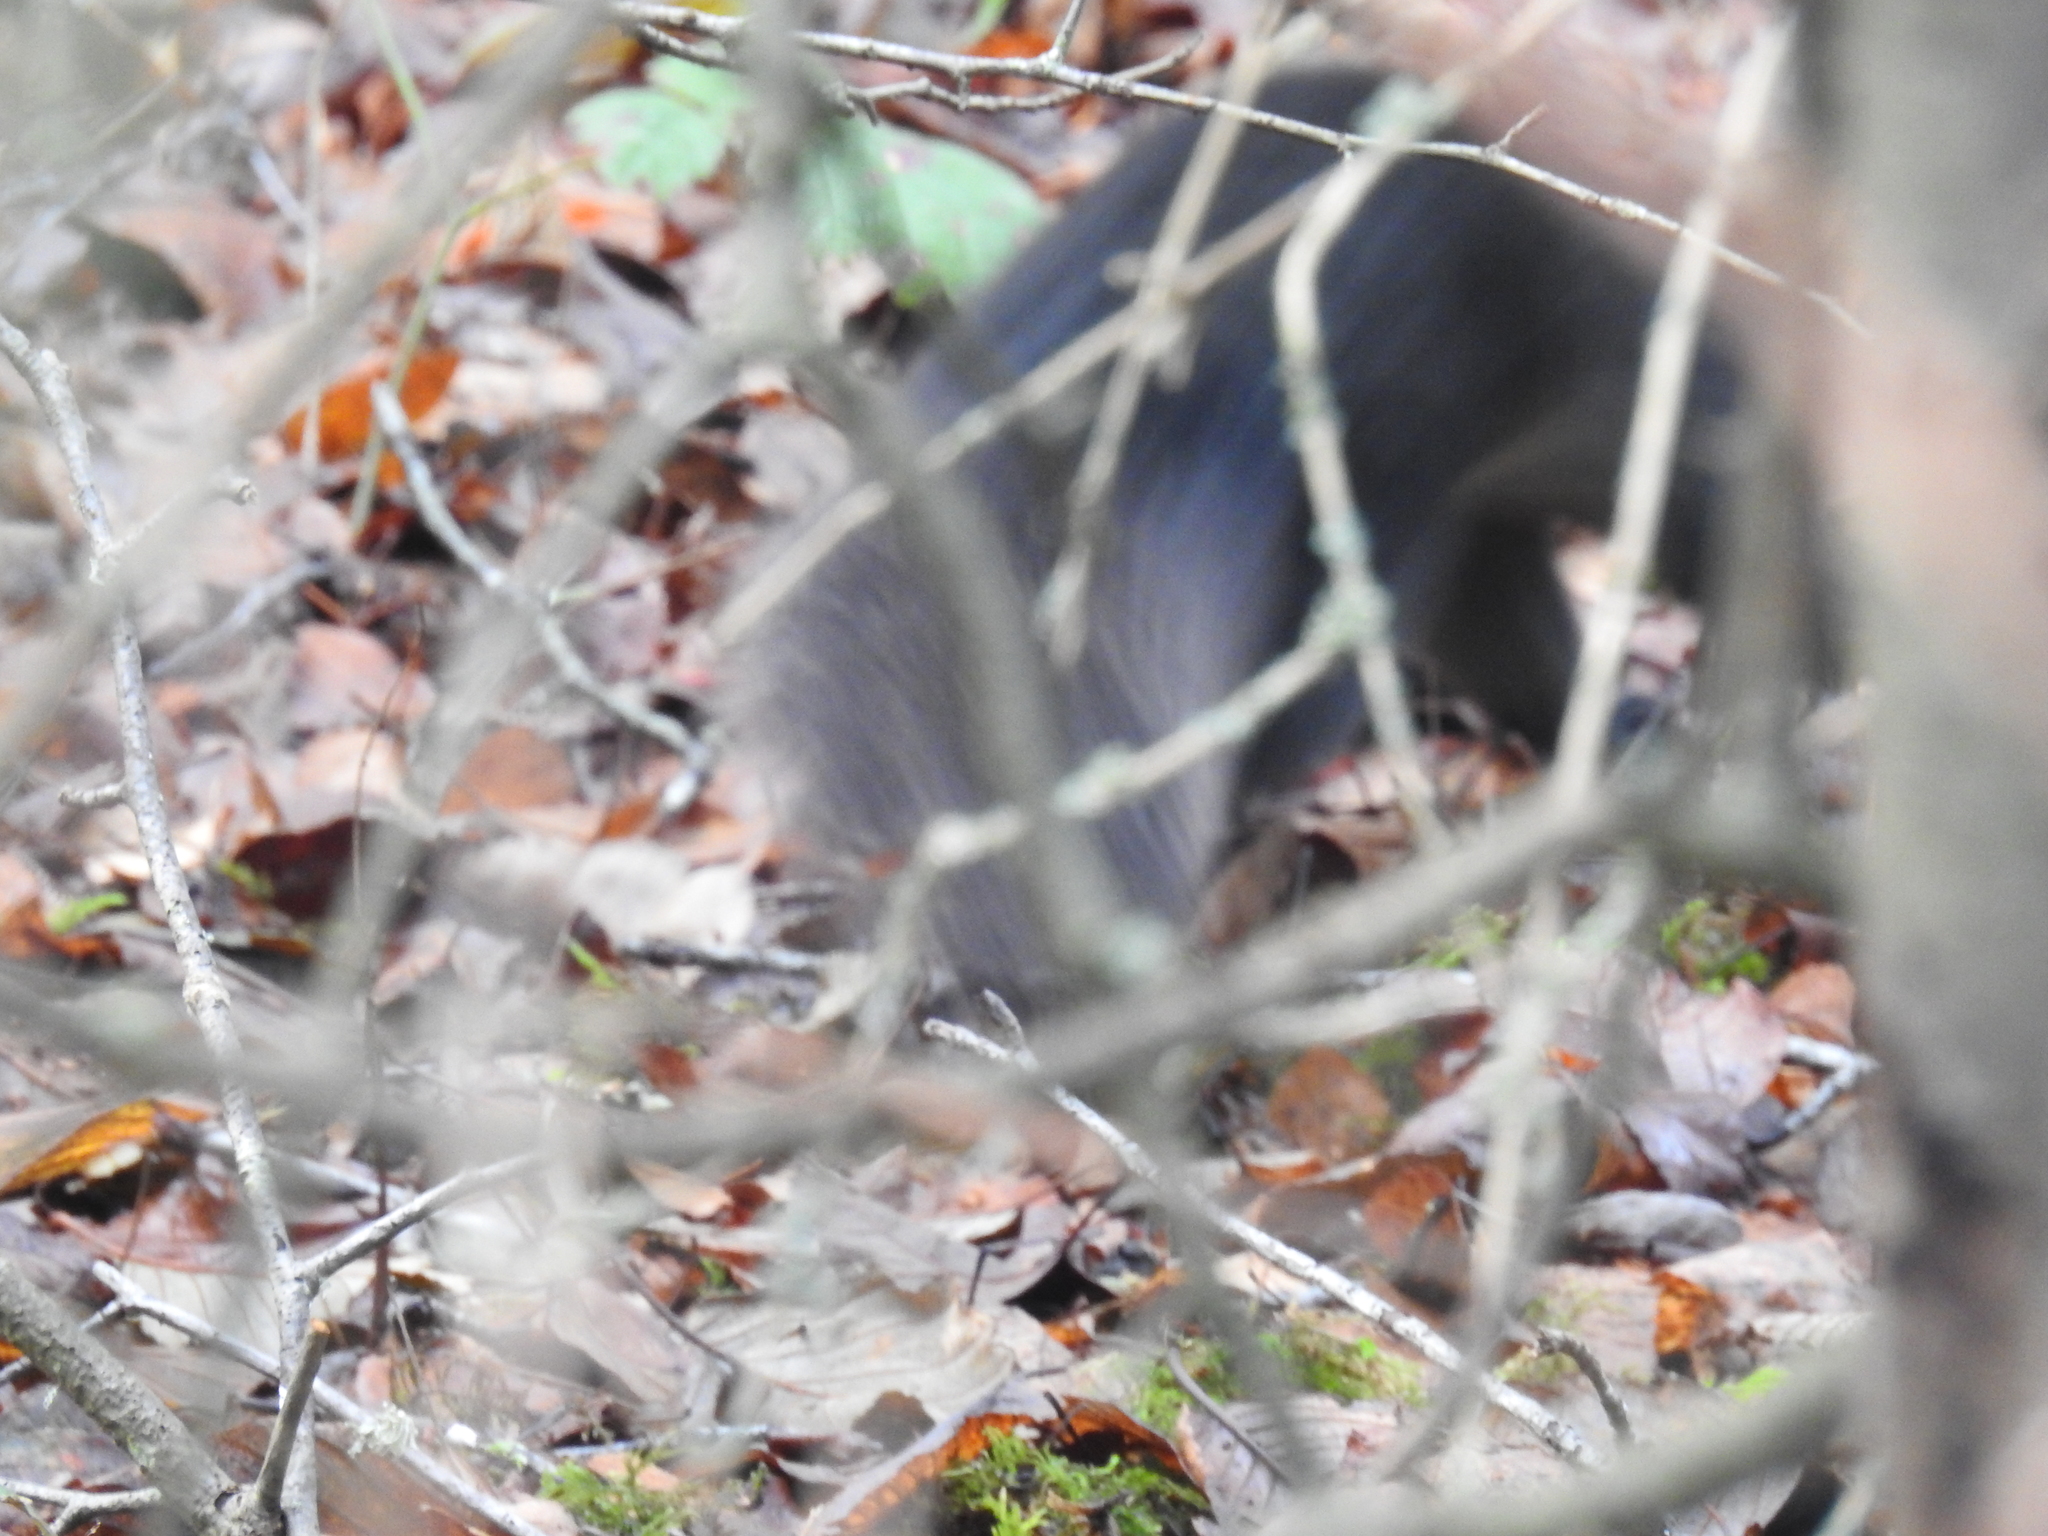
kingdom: Animalia
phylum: Chordata
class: Mammalia
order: Rodentia
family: Sciuridae
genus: Sciurus
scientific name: Sciurus carolinensis
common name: Eastern gray squirrel
